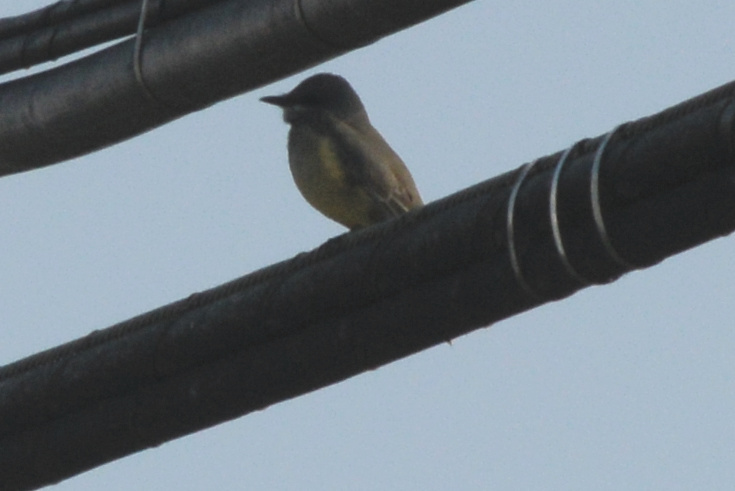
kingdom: Animalia
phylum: Chordata
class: Aves
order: Passeriformes
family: Tyrannidae
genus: Tyrannus
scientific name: Tyrannus vociferans
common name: Cassin's kingbird
